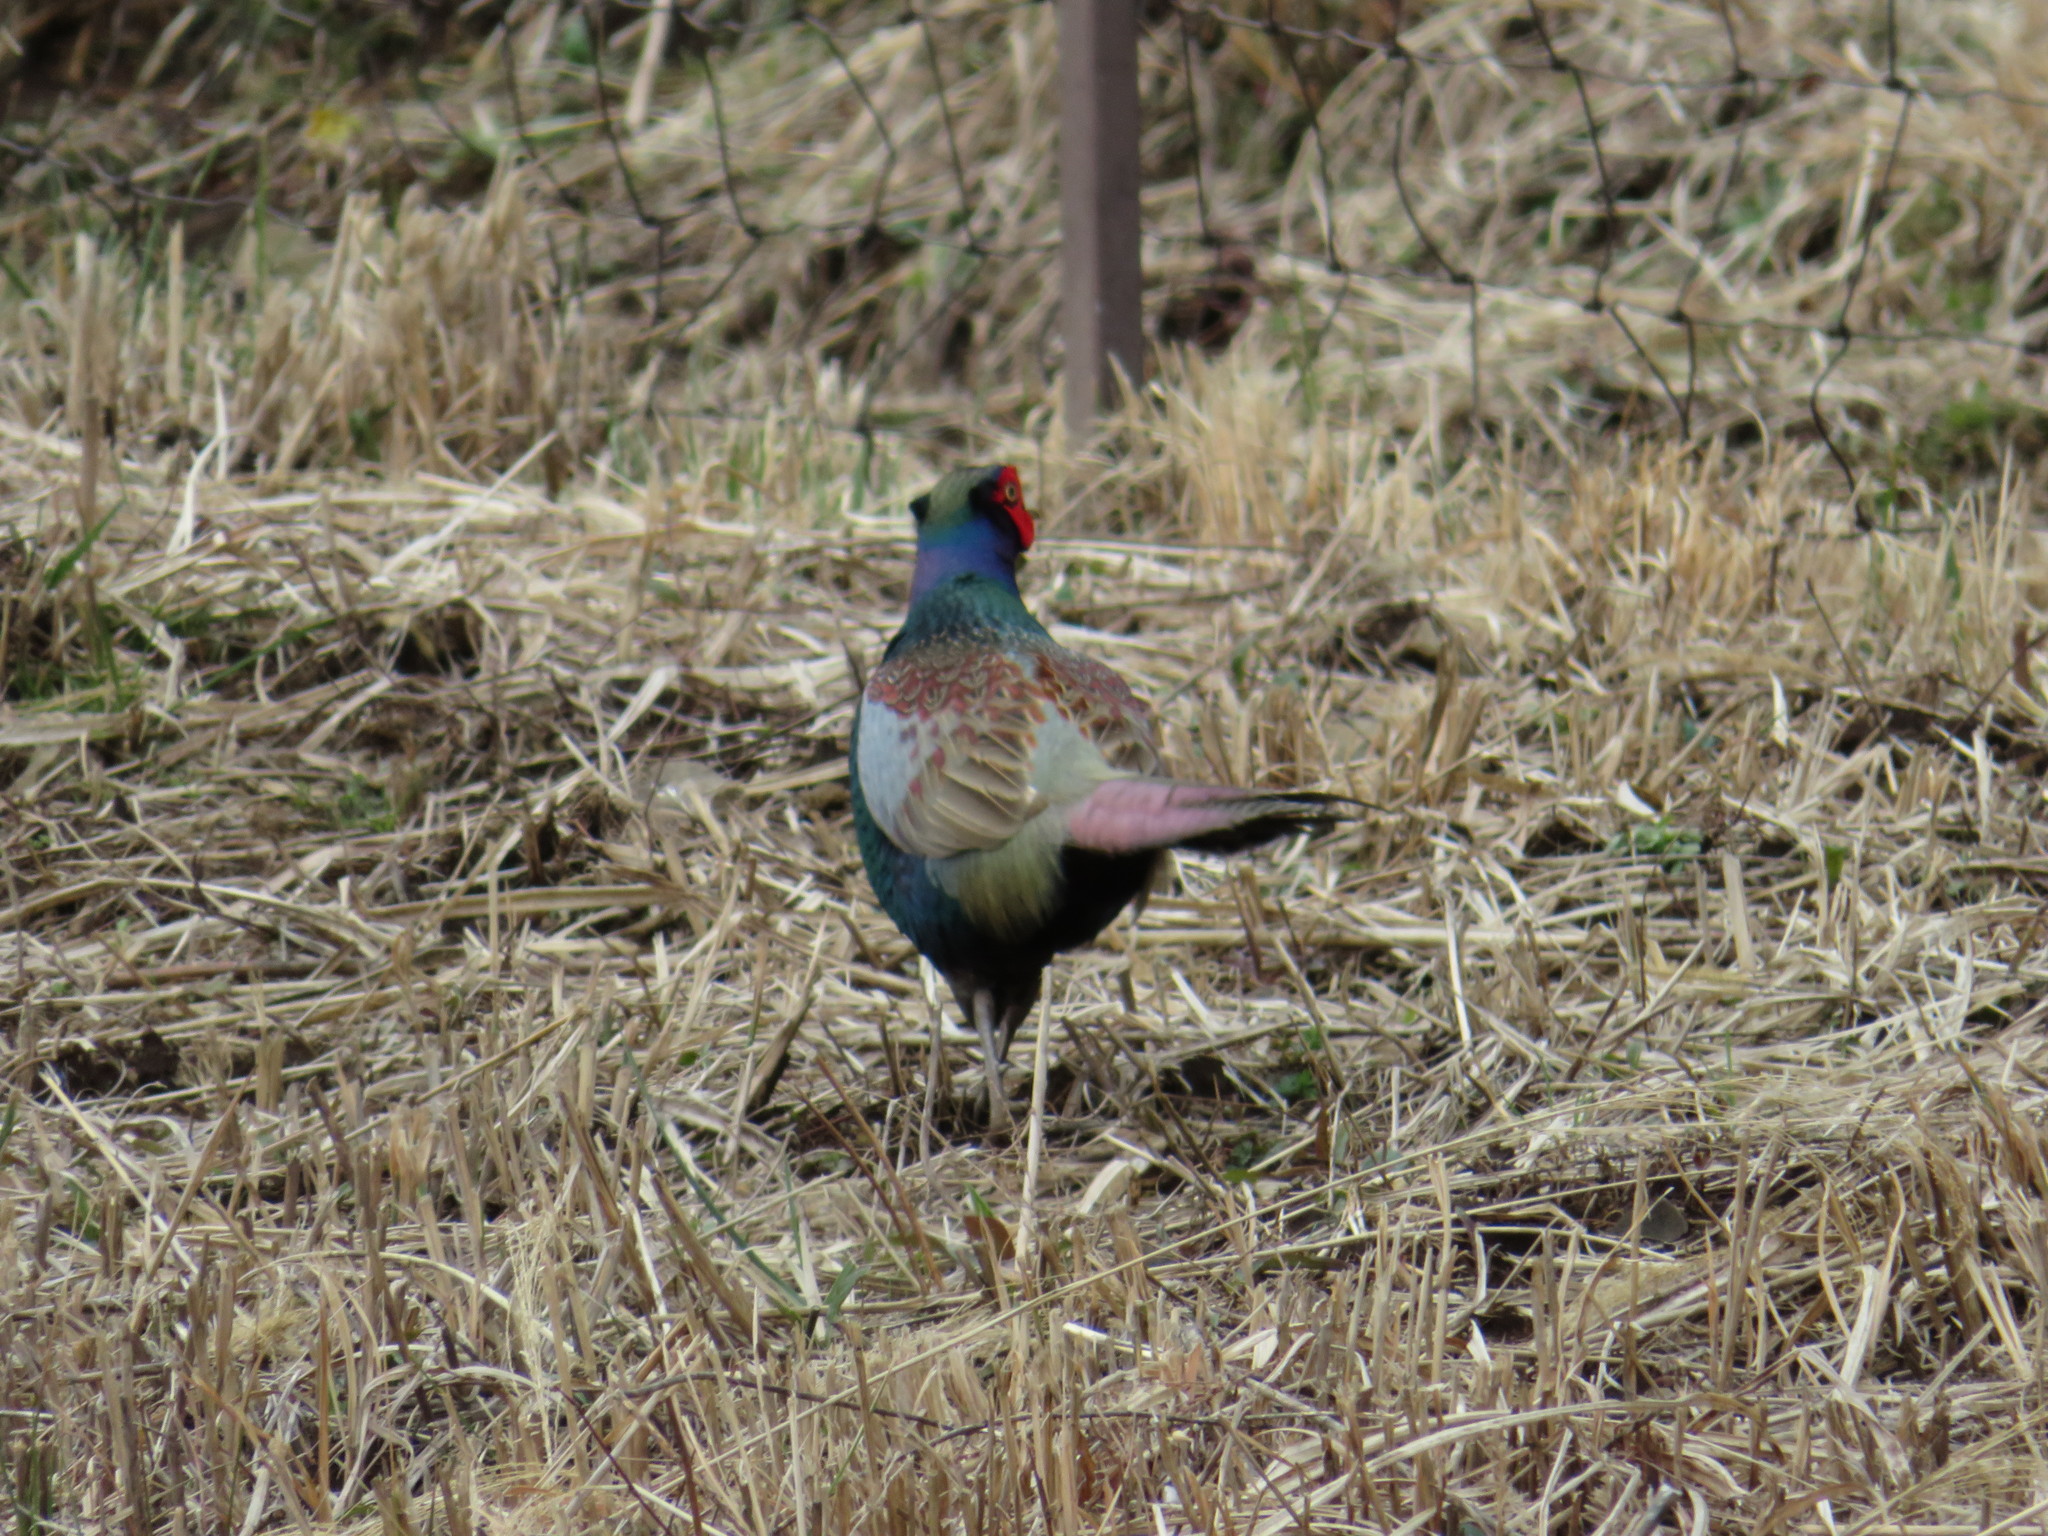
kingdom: Animalia
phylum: Chordata
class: Aves
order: Galliformes
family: Phasianidae
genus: Phasianus
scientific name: Phasianus versicolor
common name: Green pheasant
